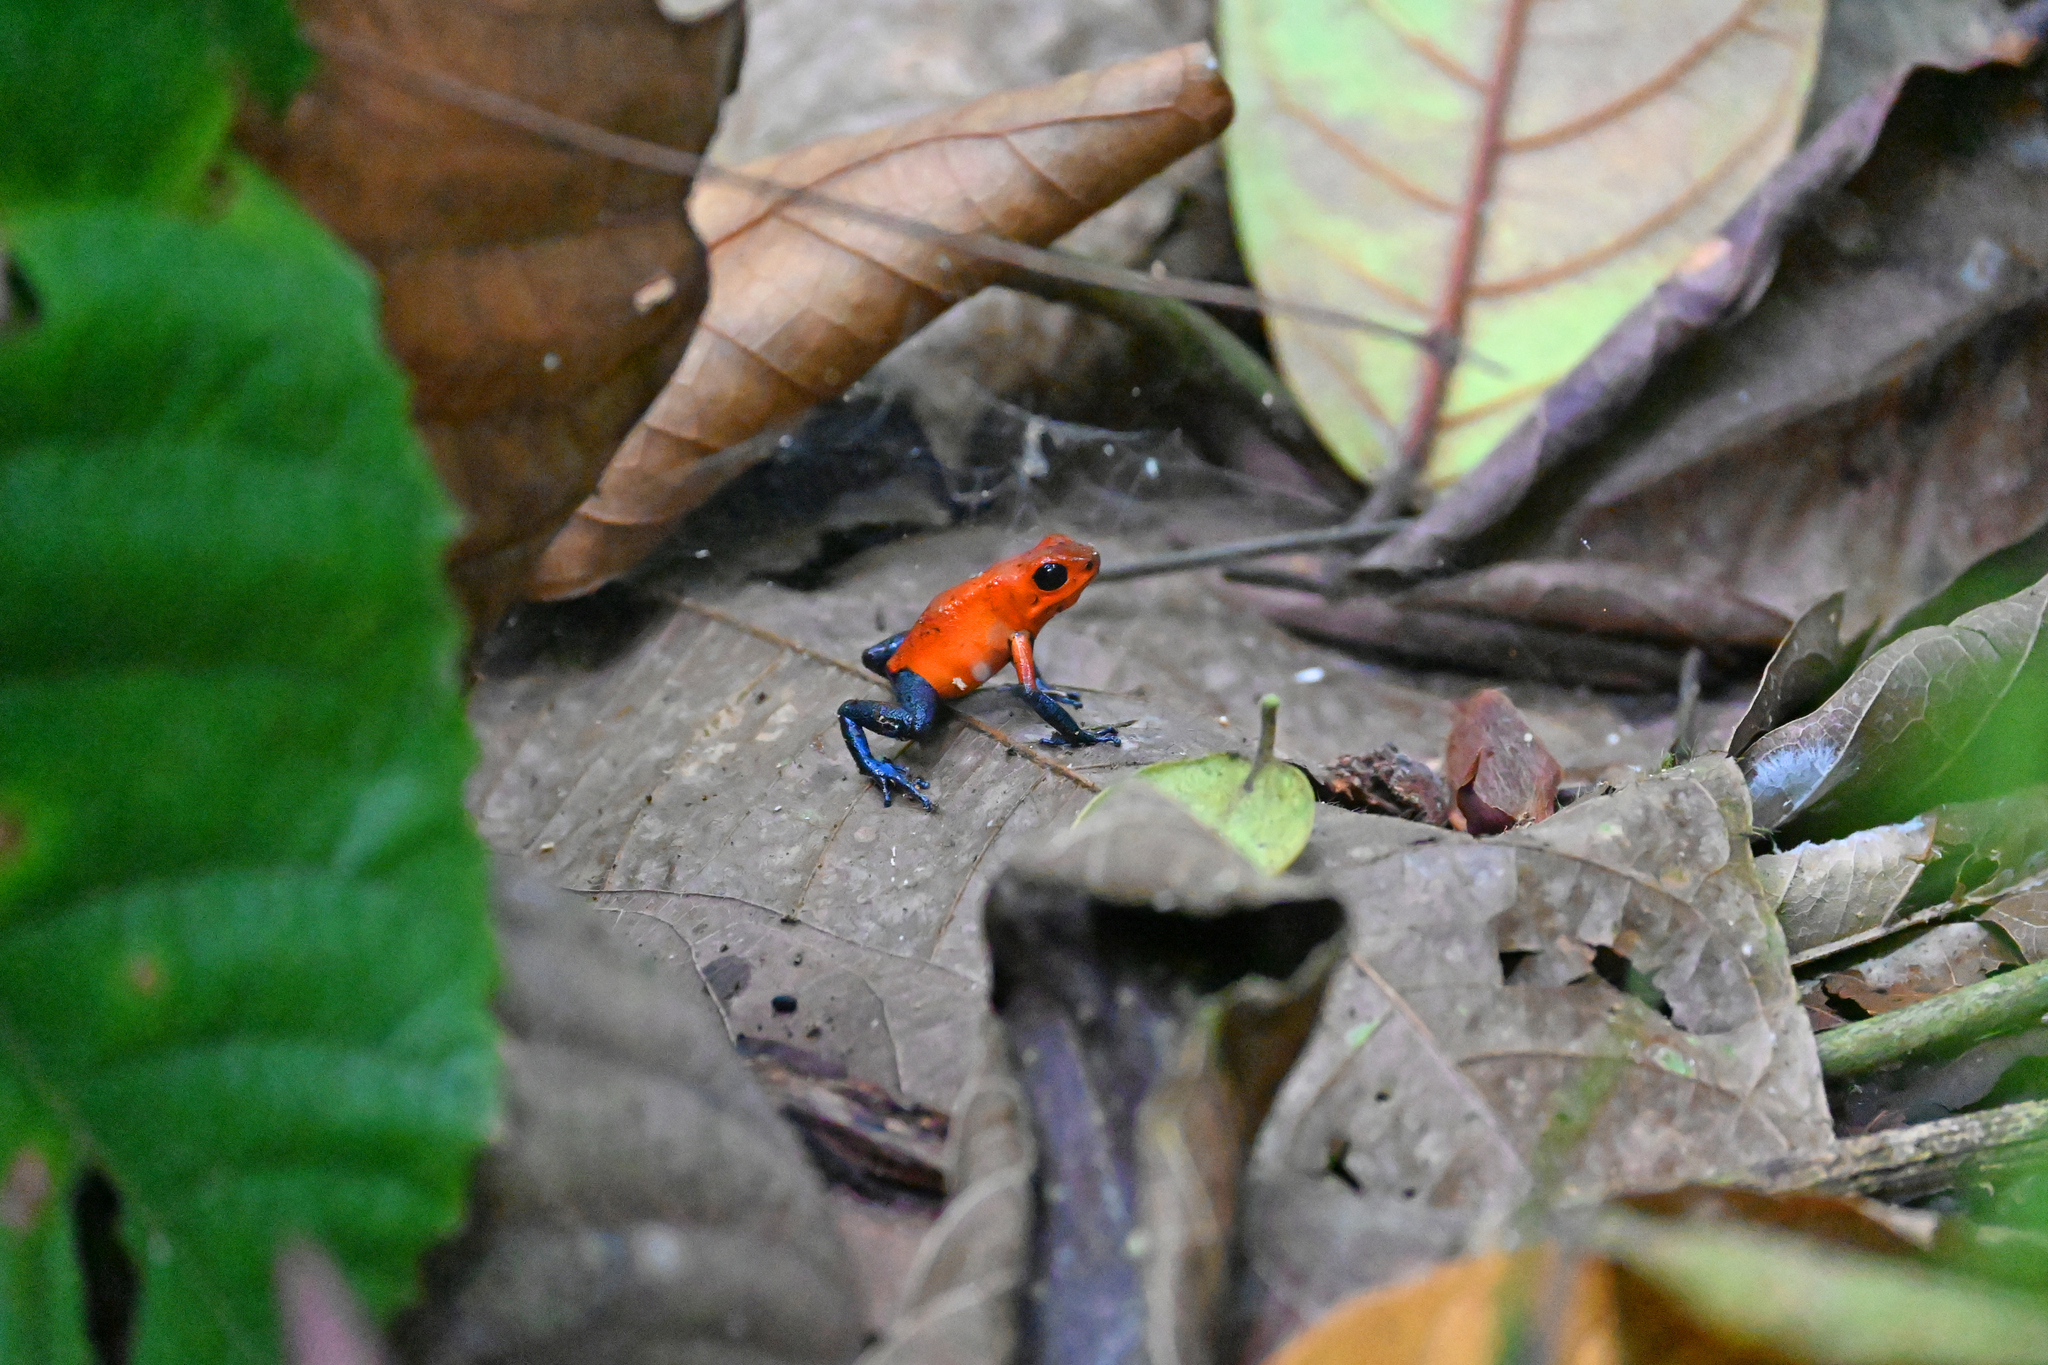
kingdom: Animalia
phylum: Chordata
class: Amphibia
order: Anura
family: Dendrobatidae
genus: Oophaga
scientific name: Oophaga pumilio
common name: Flaming poison frog
